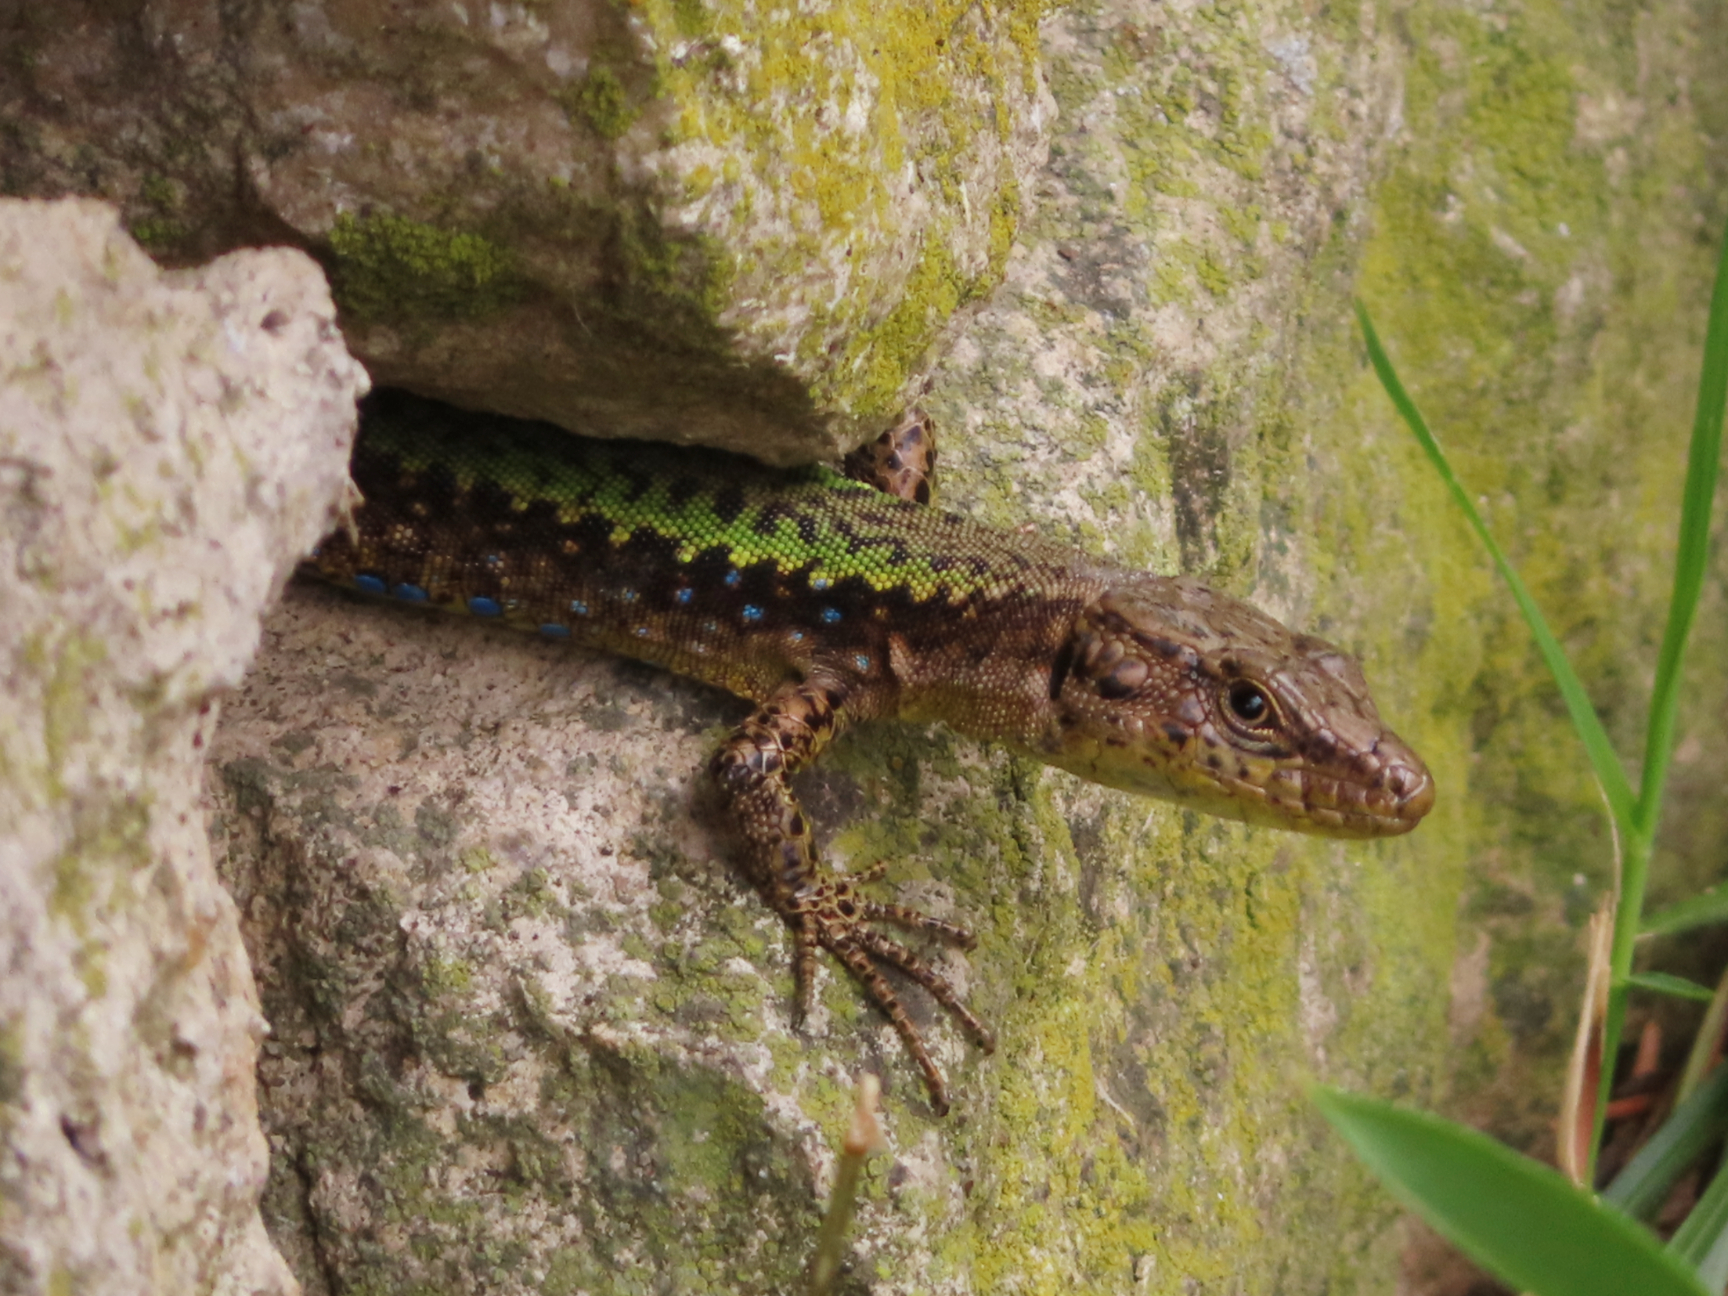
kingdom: Animalia
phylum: Chordata
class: Squamata
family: Lacertidae
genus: Darevskia
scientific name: Darevskia mixta
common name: Ajarian lizard
